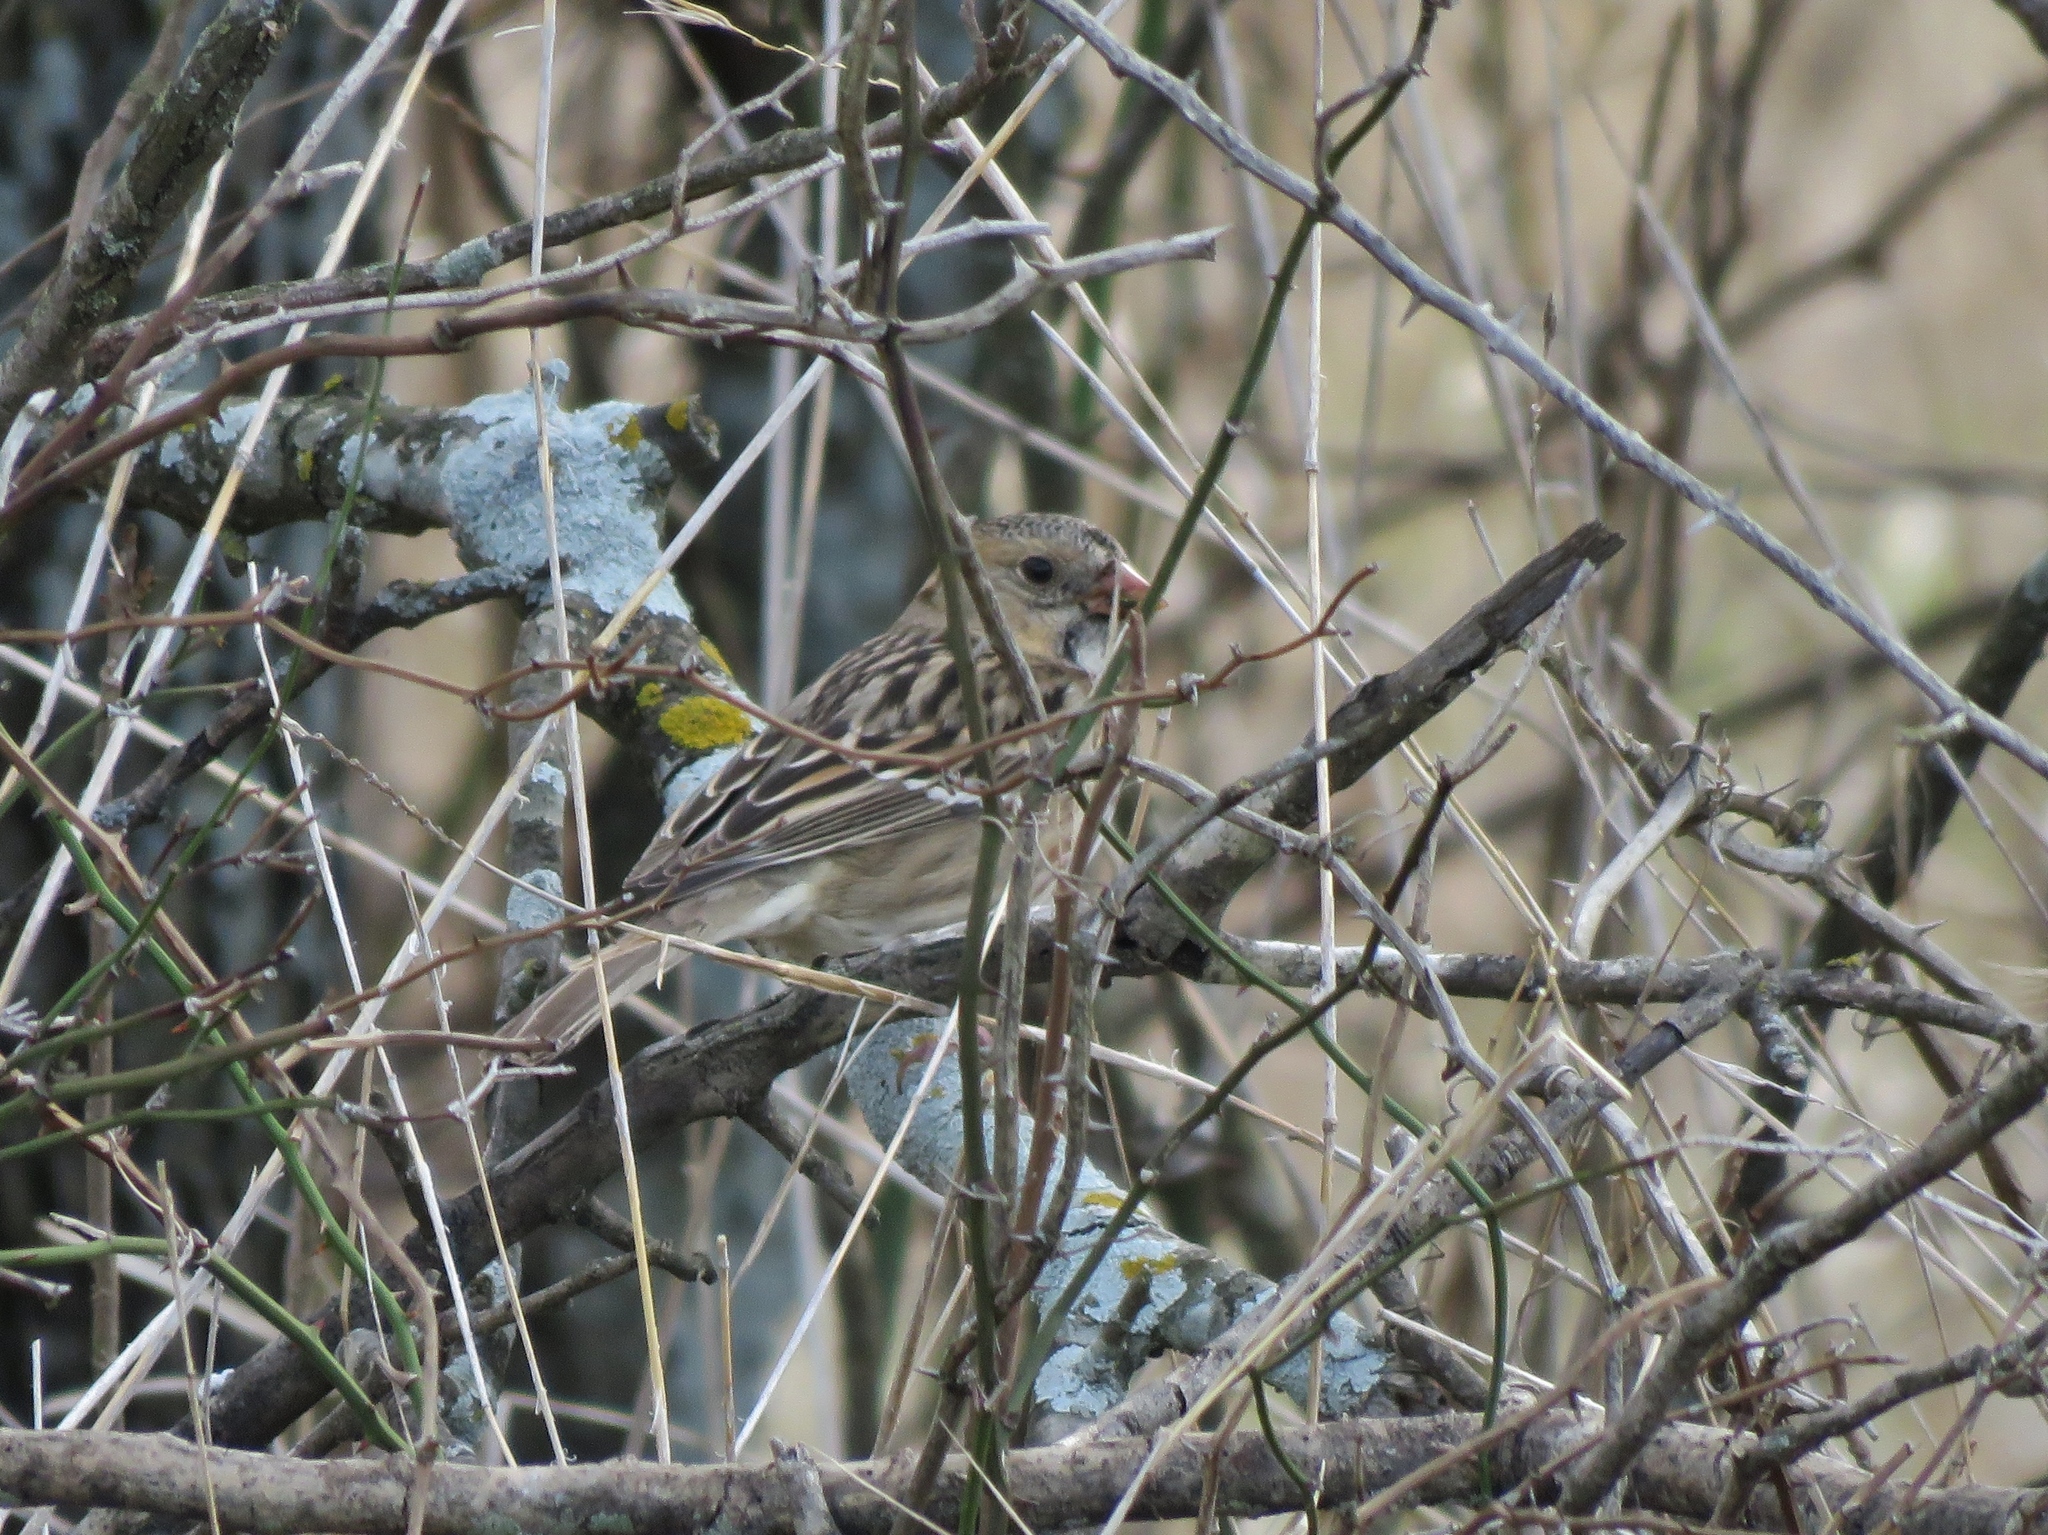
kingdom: Animalia
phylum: Chordata
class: Aves
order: Passeriformes
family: Passerellidae
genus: Zonotrichia
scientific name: Zonotrichia querula
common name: Harris's sparrow
